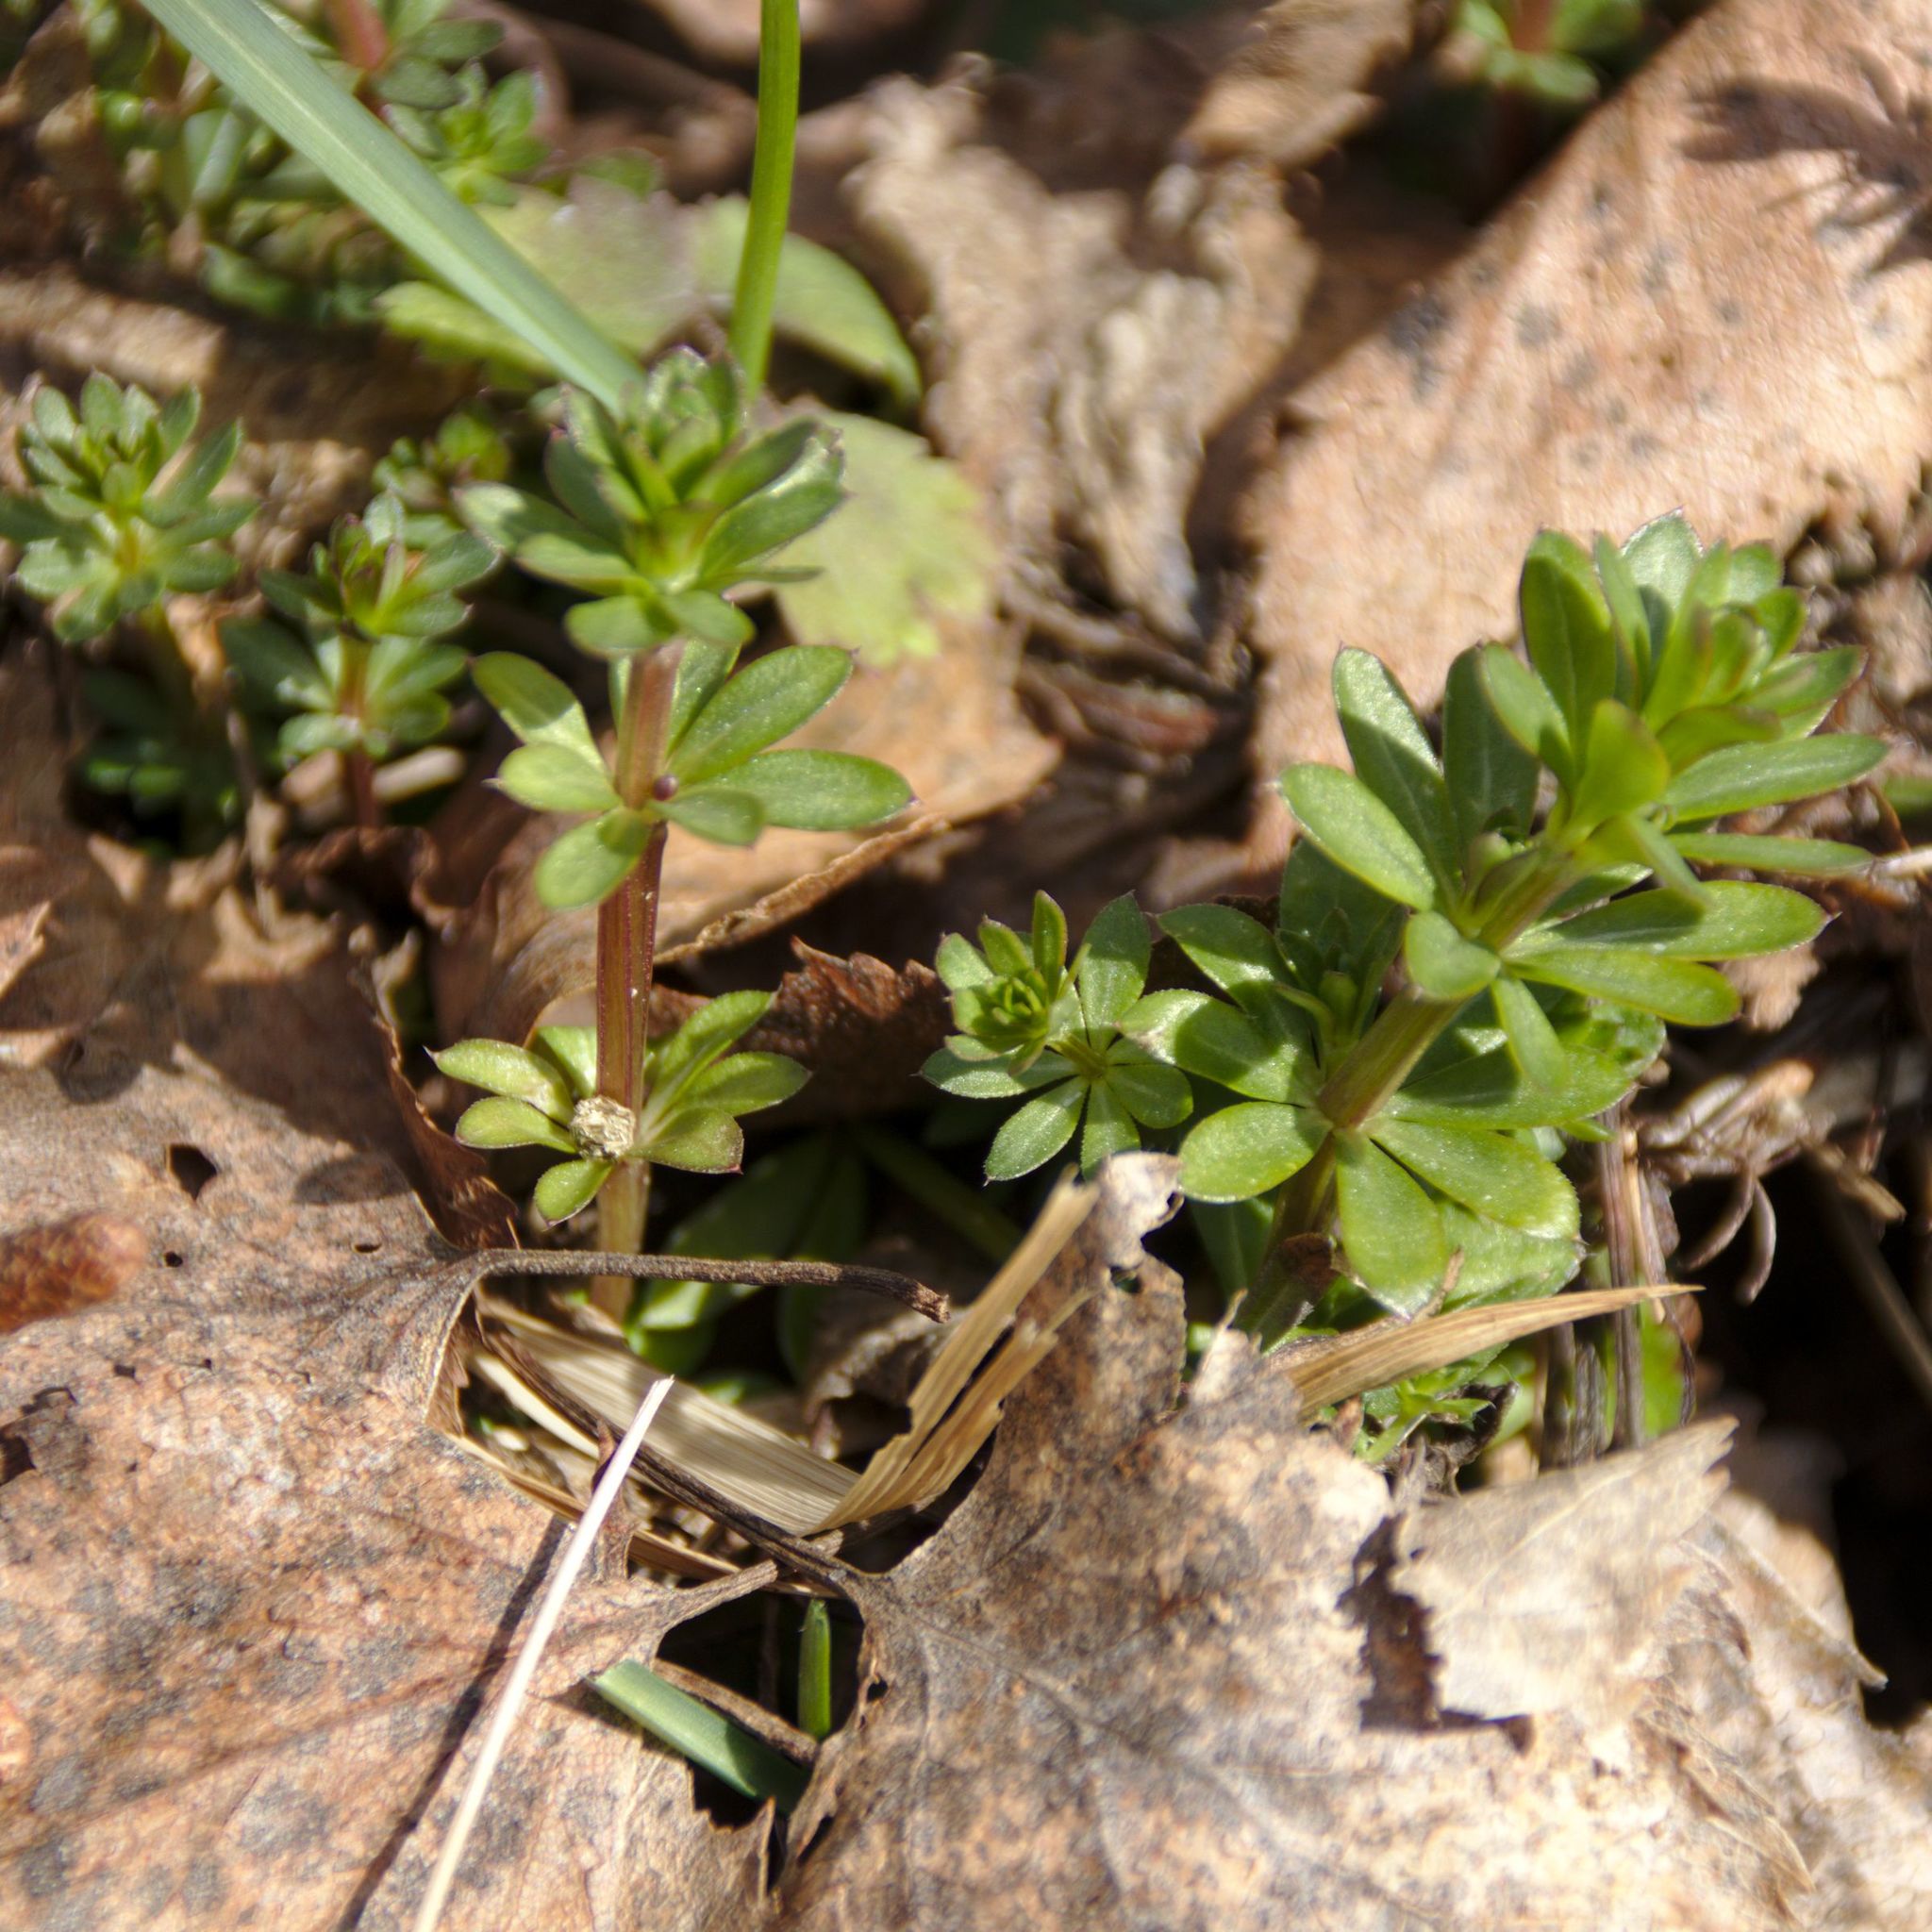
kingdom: Plantae
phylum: Tracheophyta
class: Magnoliopsida
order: Gentianales
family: Rubiaceae
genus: Galium
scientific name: Galium mollugo
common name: Hedge bedstraw
